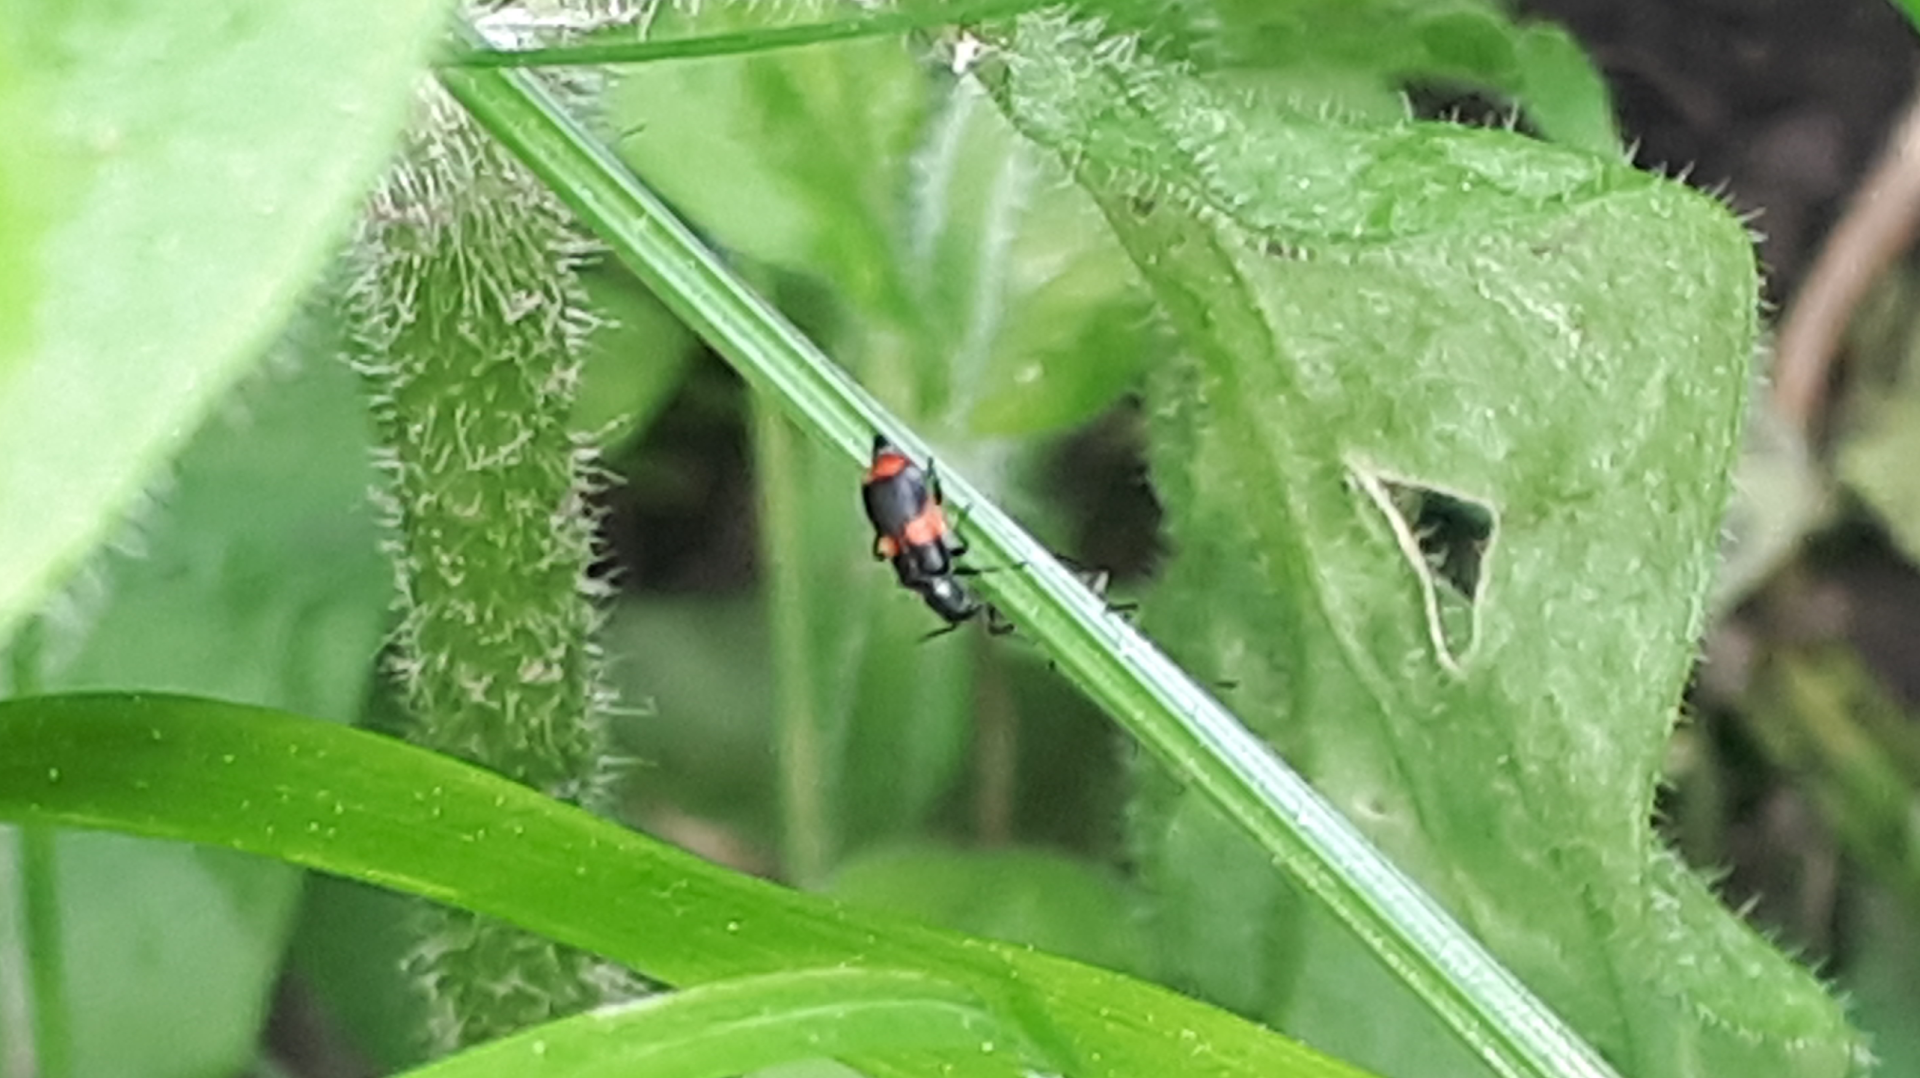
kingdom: Animalia
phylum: Arthropoda
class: Insecta
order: Coleoptera
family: Melyridae
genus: Anthocomus
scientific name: Anthocomus fasciatus
